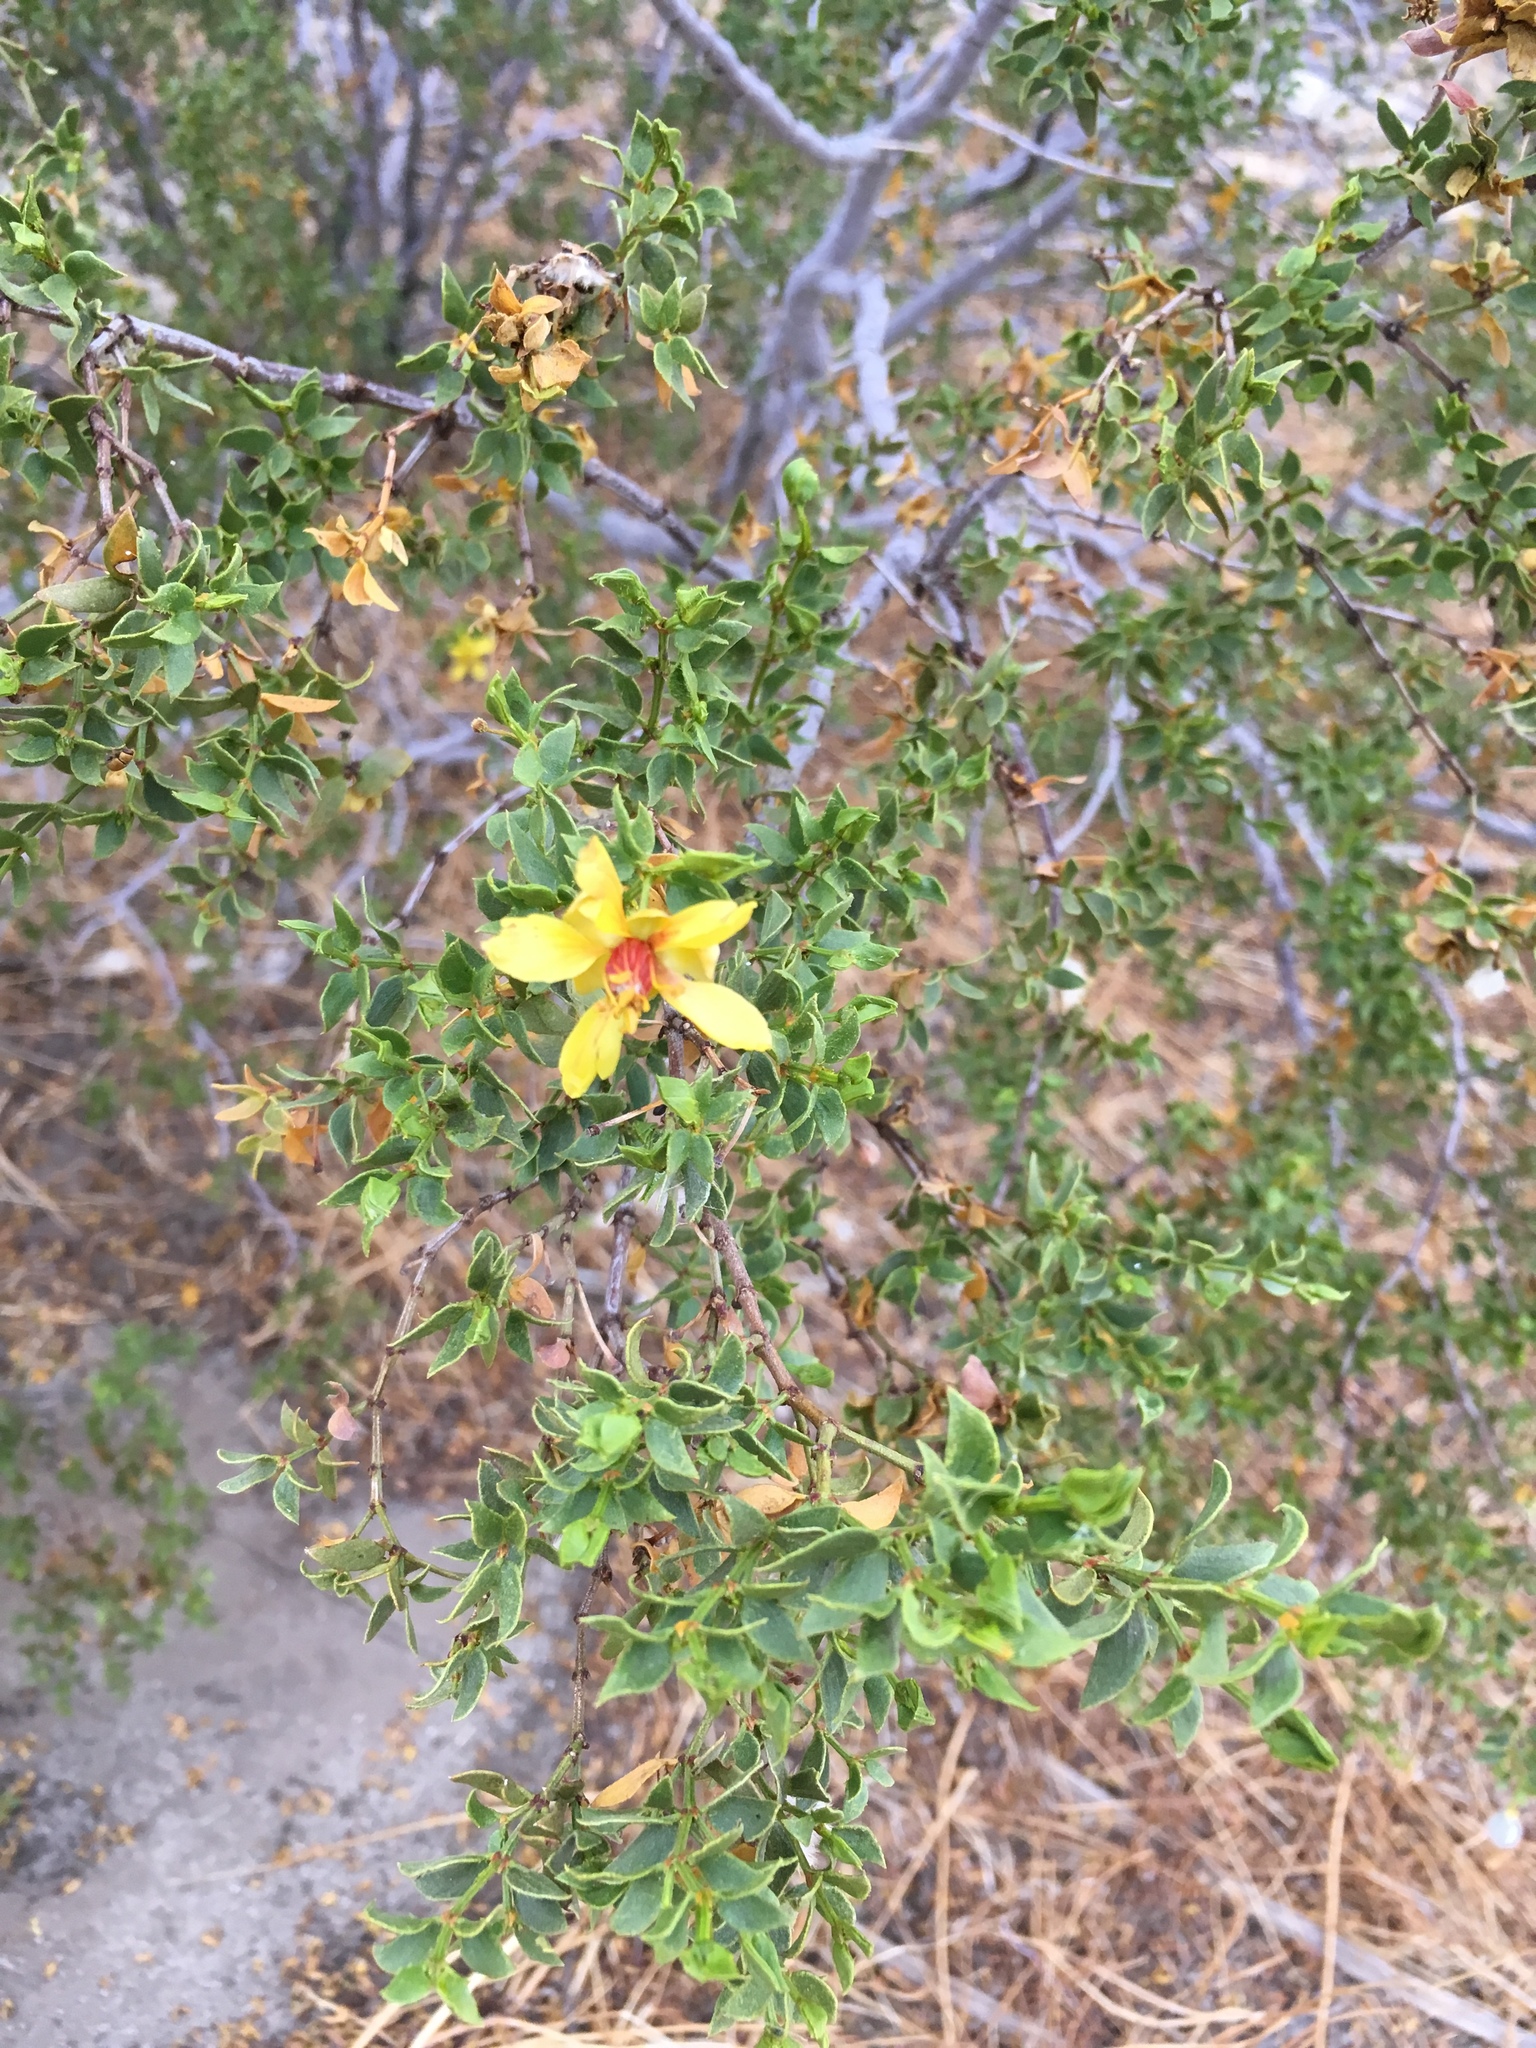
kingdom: Plantae
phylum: Tracheophyta
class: Magnoliopsida
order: Zygophyllales
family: Zygophyllaceae
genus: Larrea
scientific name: Larrea tridentata
